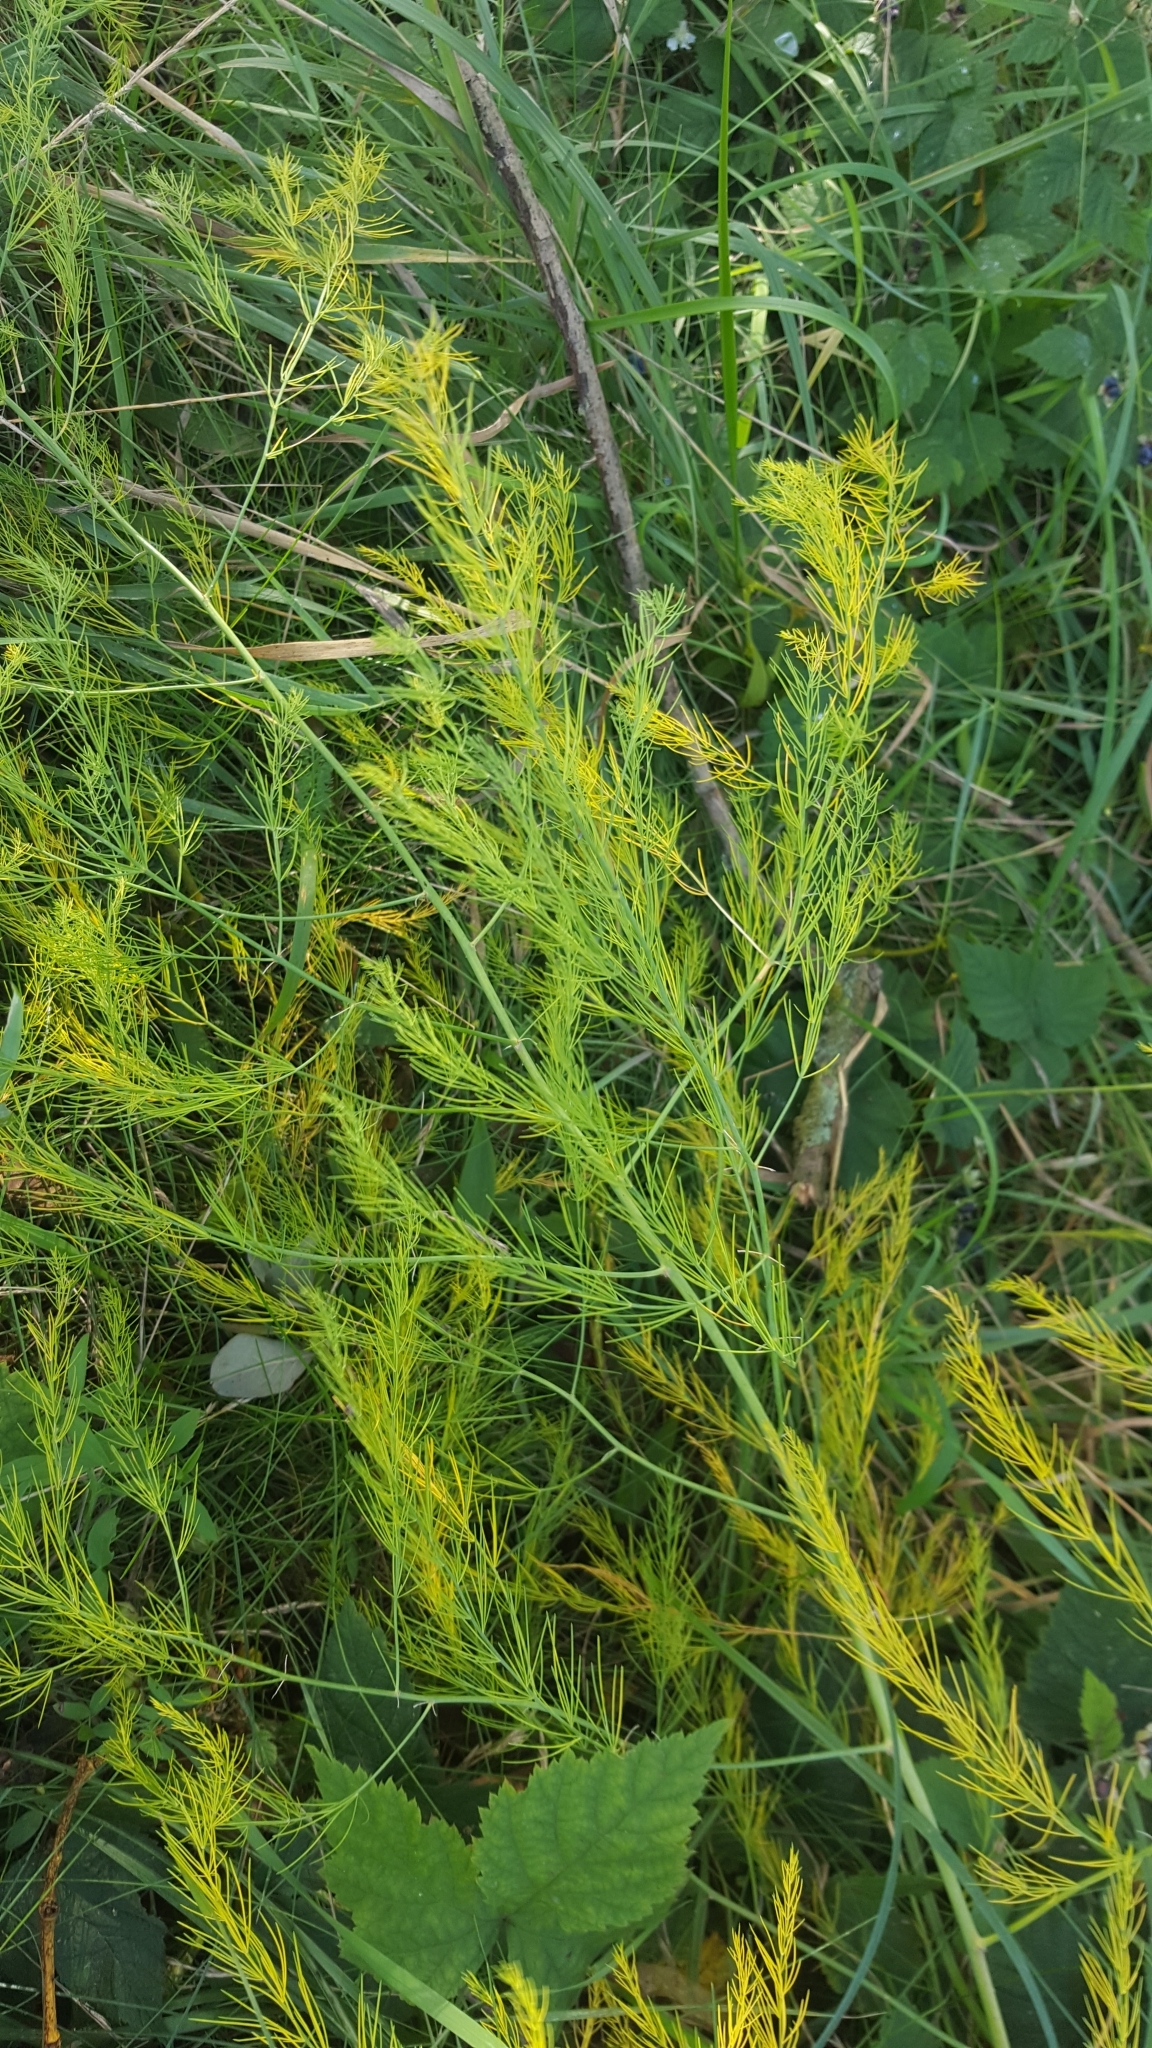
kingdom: Plantae
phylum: Tracheophyta
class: Liliopsida
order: Asparagales
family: Asparagaceae
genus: Asparagus
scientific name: Asparagus officinalis
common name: Garden asparagus
